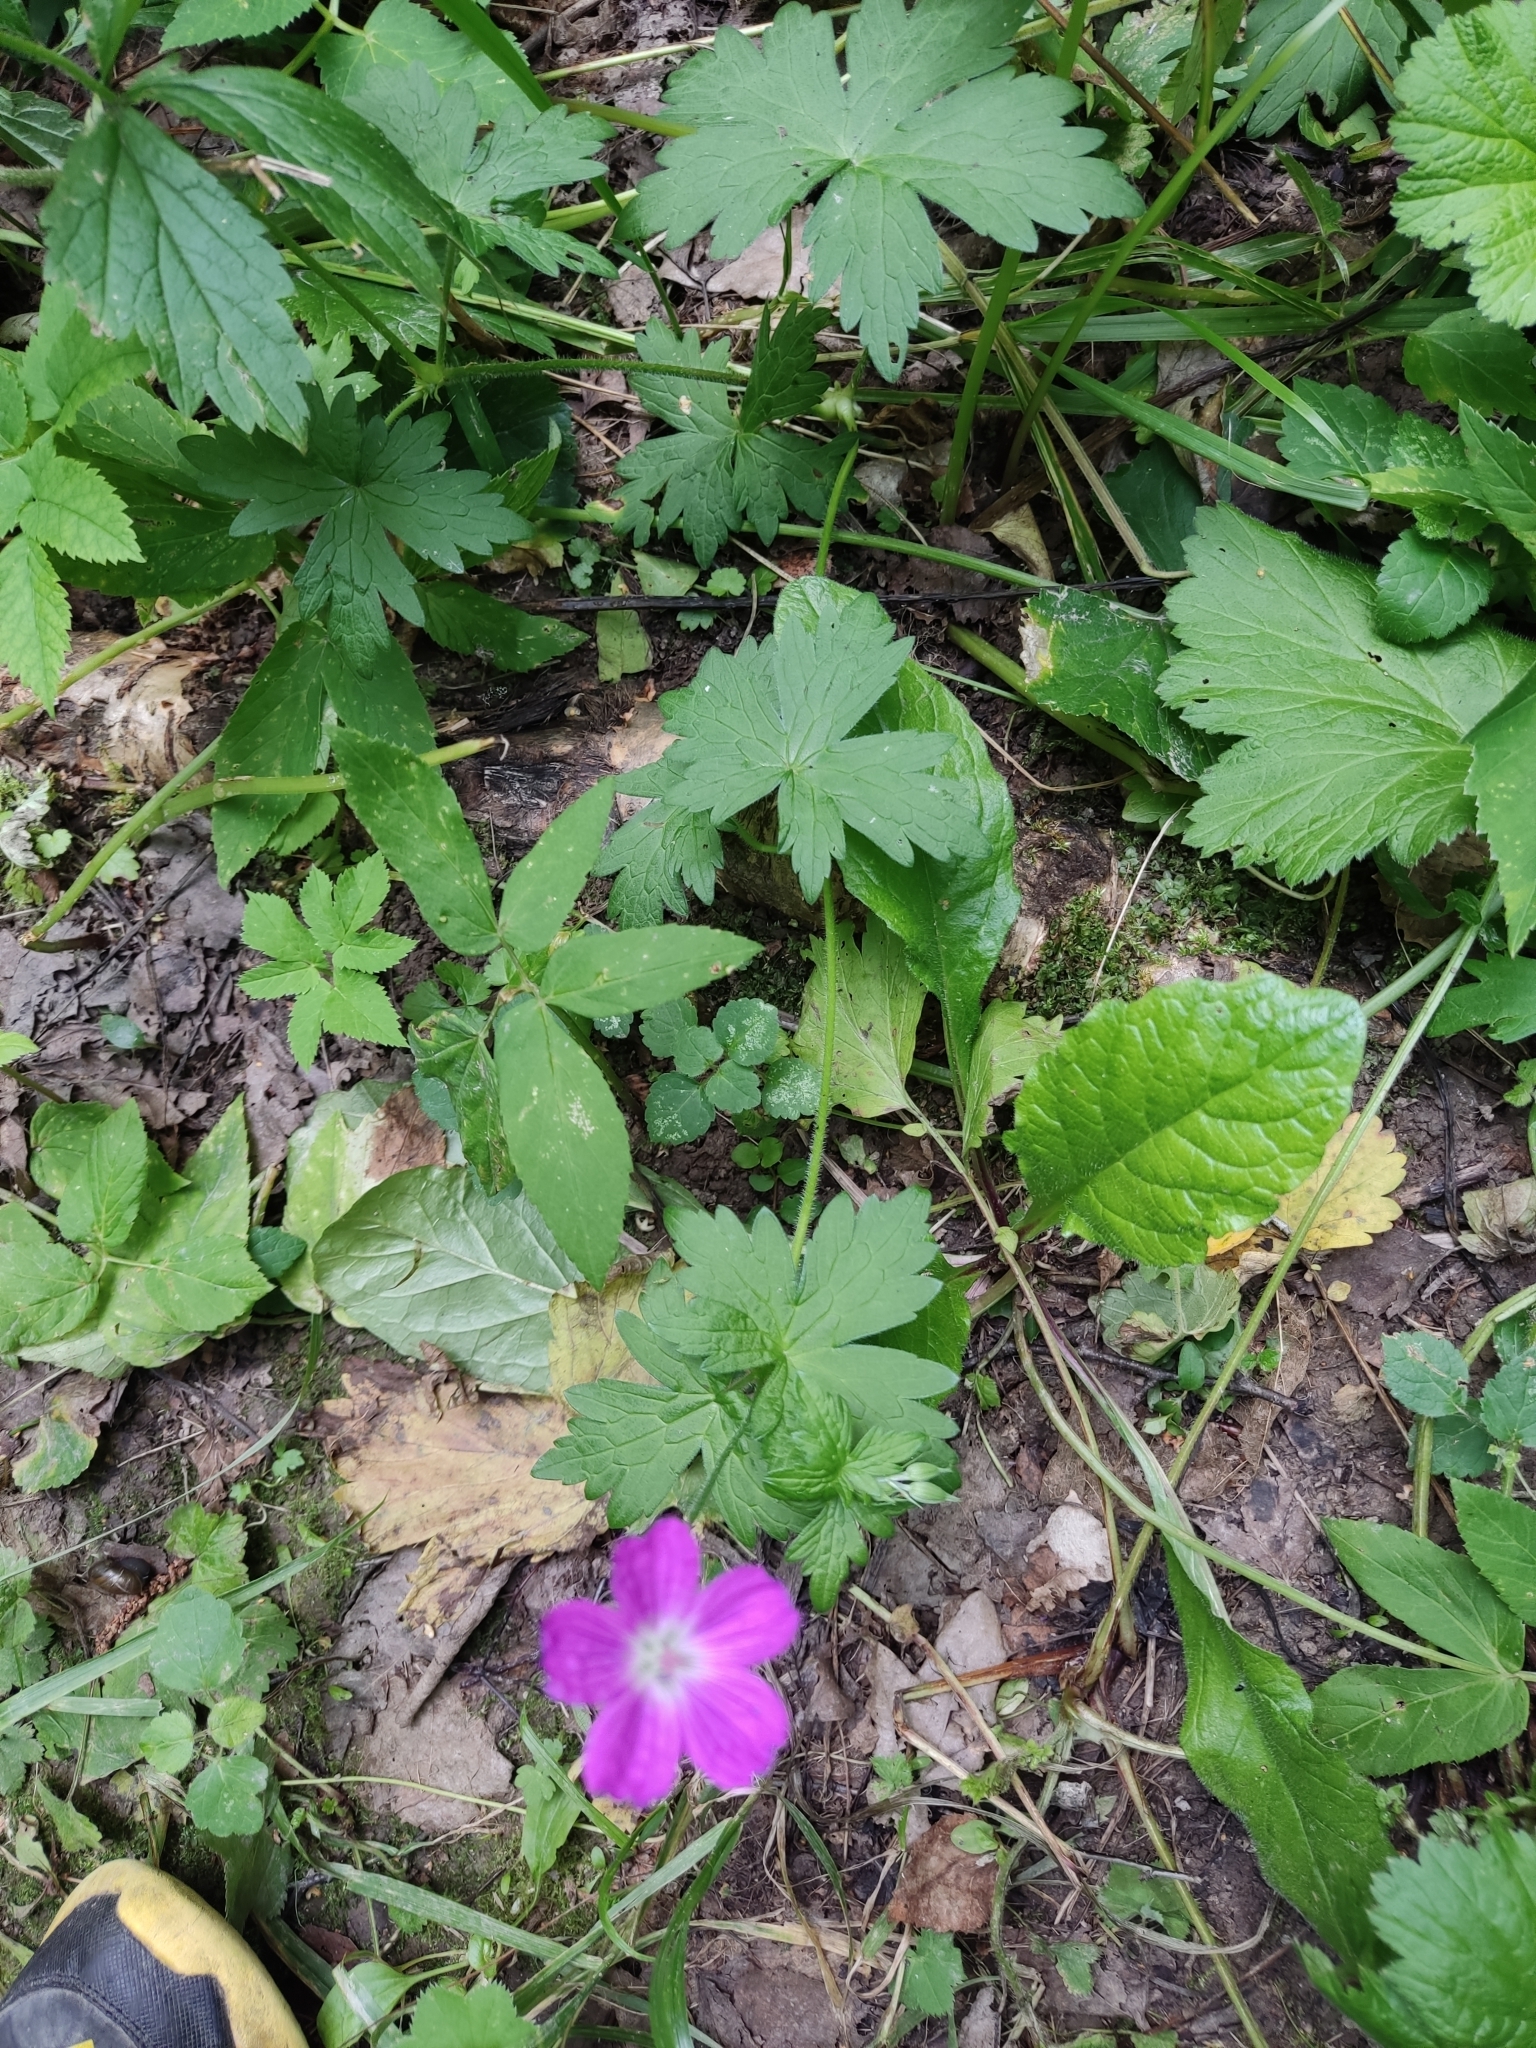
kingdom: Plantae
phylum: Tracheophyta
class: Magnoliopsida
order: Geraniales
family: Geraniaceae
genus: Geranium
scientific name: Geranium palustre
